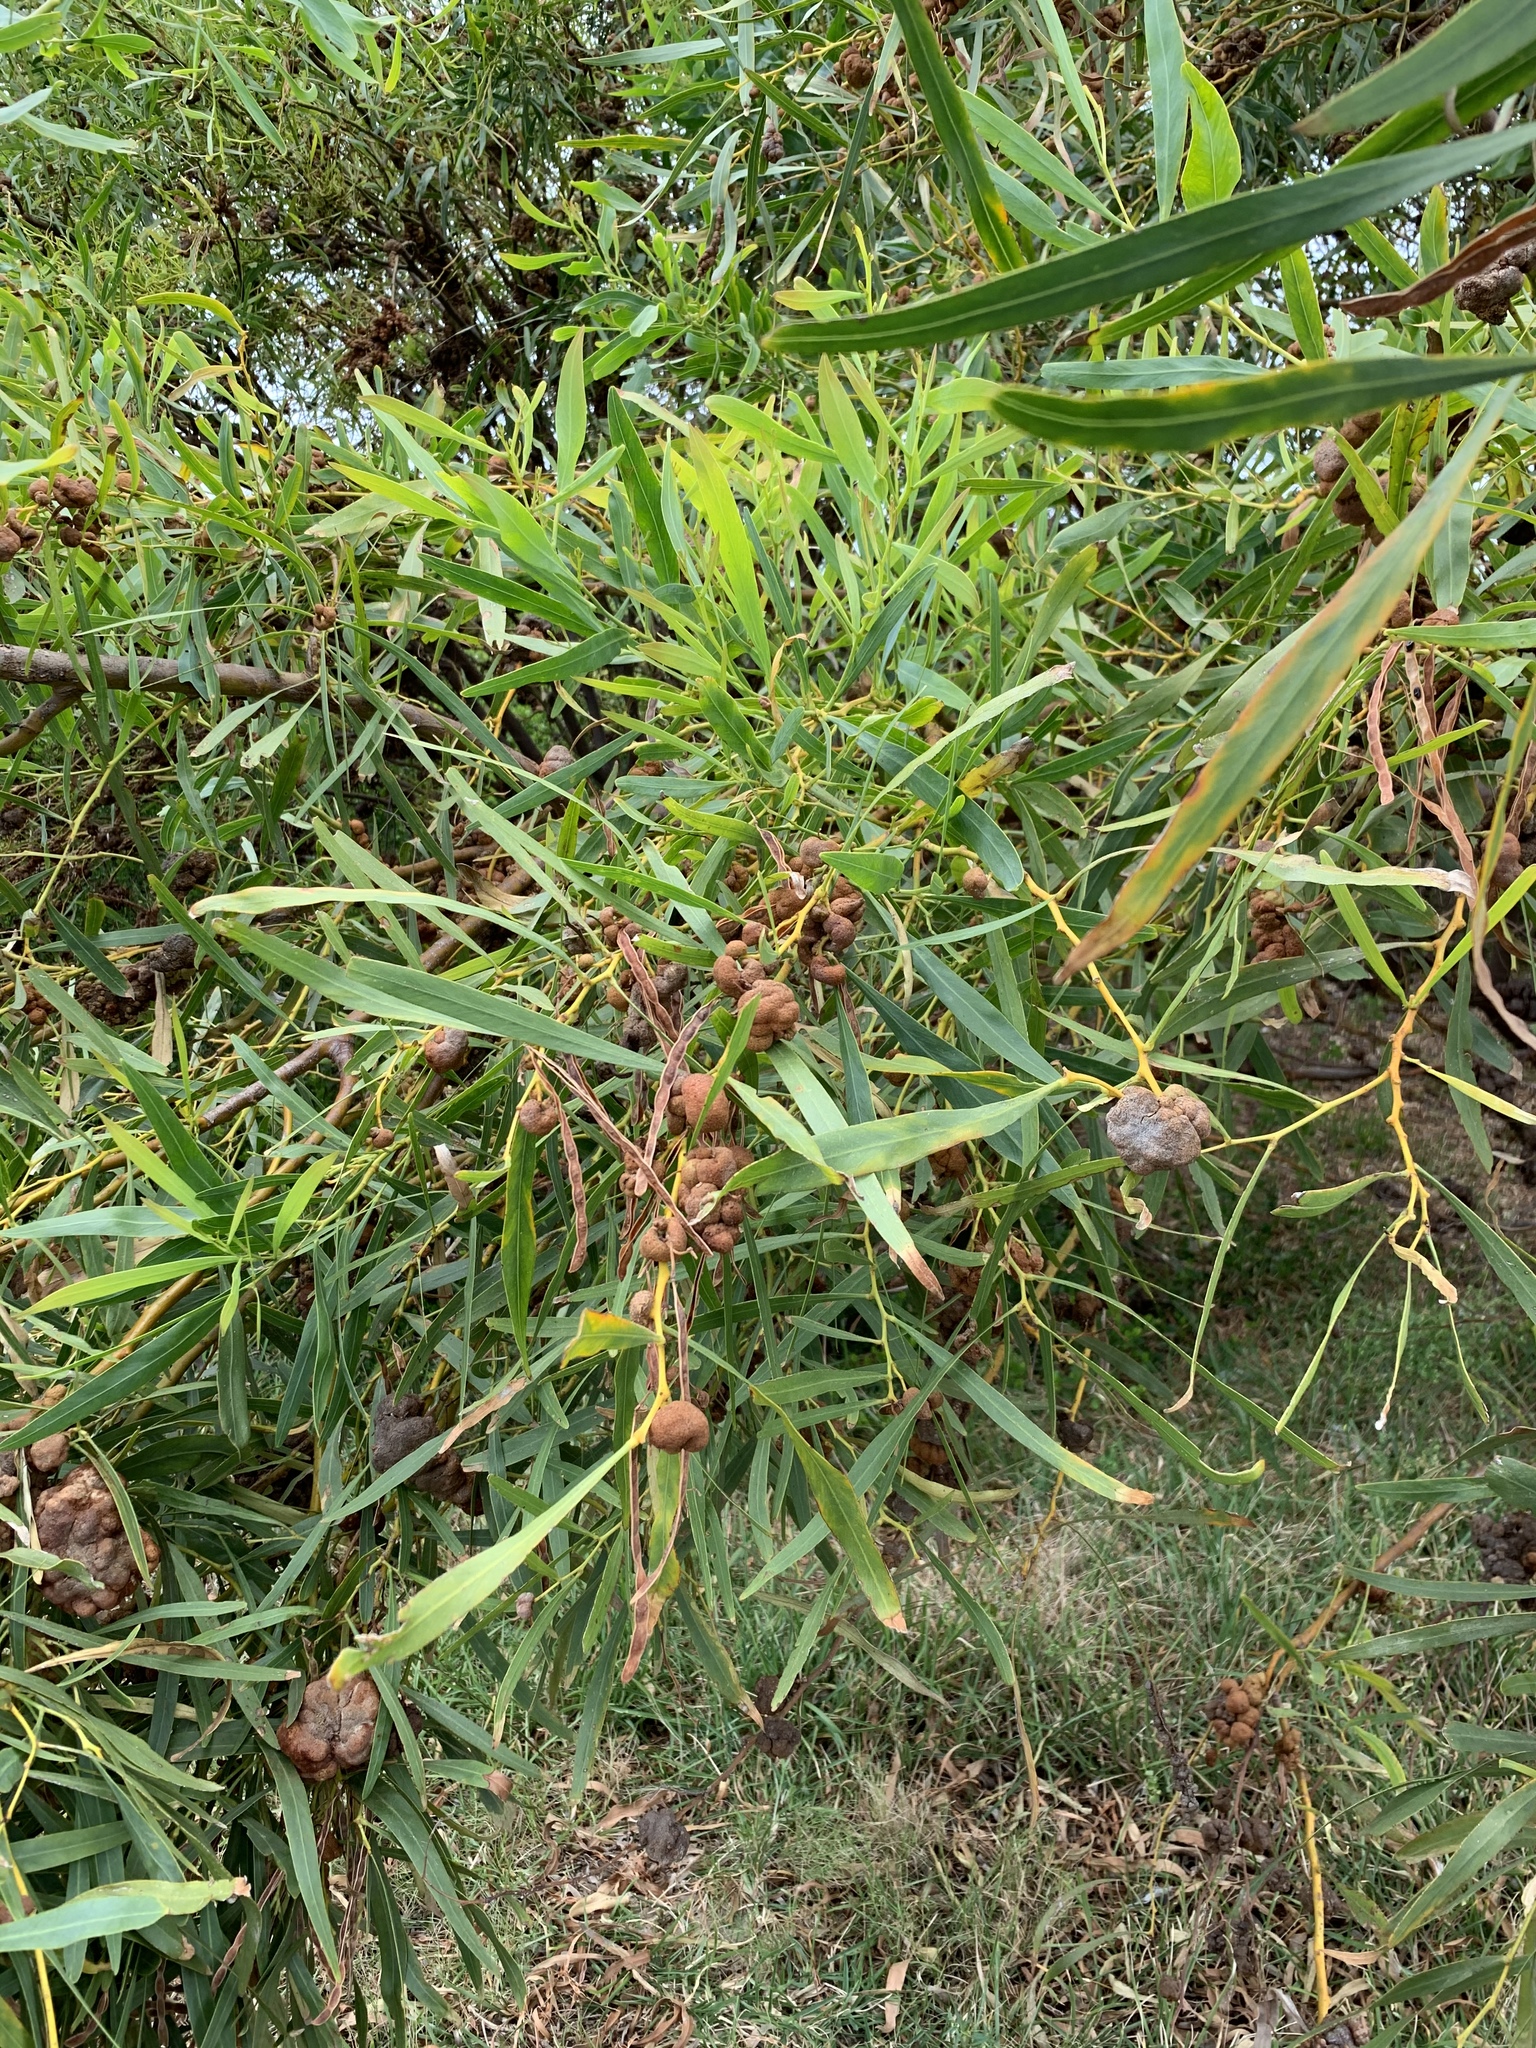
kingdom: Plantae
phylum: Tracheophyta
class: Magnoliopsida
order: Fabales
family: Fabaceae
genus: Acacia
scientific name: Acacia saligna
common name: Orange wattle
